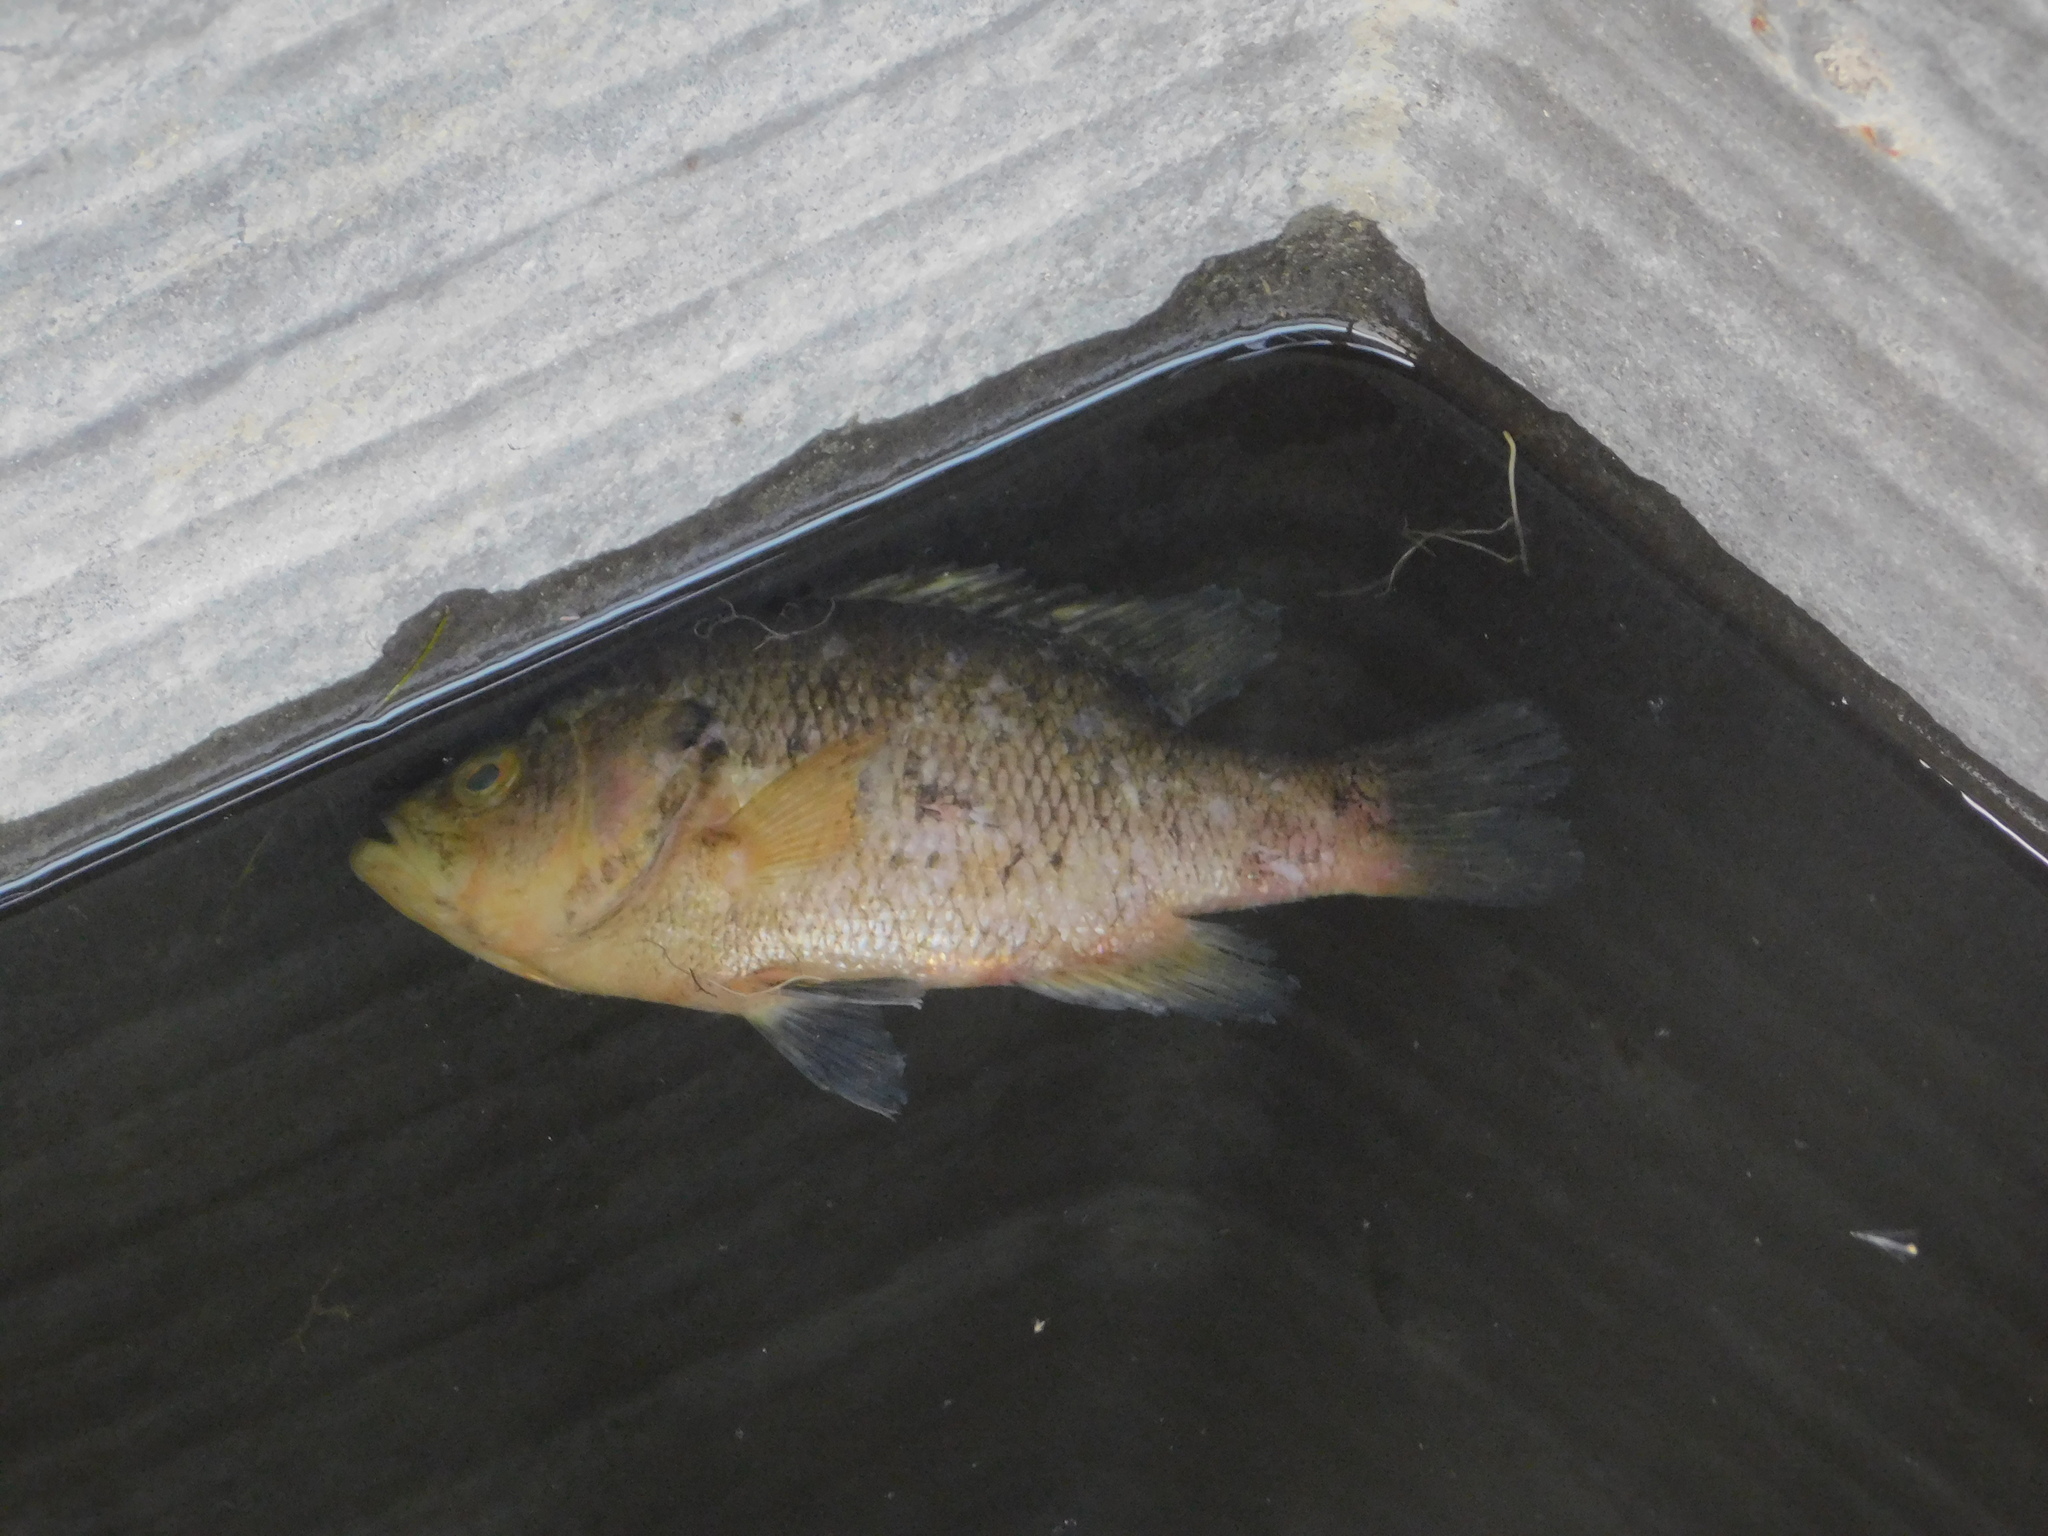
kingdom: Animalia
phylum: Chordata
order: Perciformes
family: Centrarchidae
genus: Lepomis
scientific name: Lepomis gulosus
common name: Warmouth
